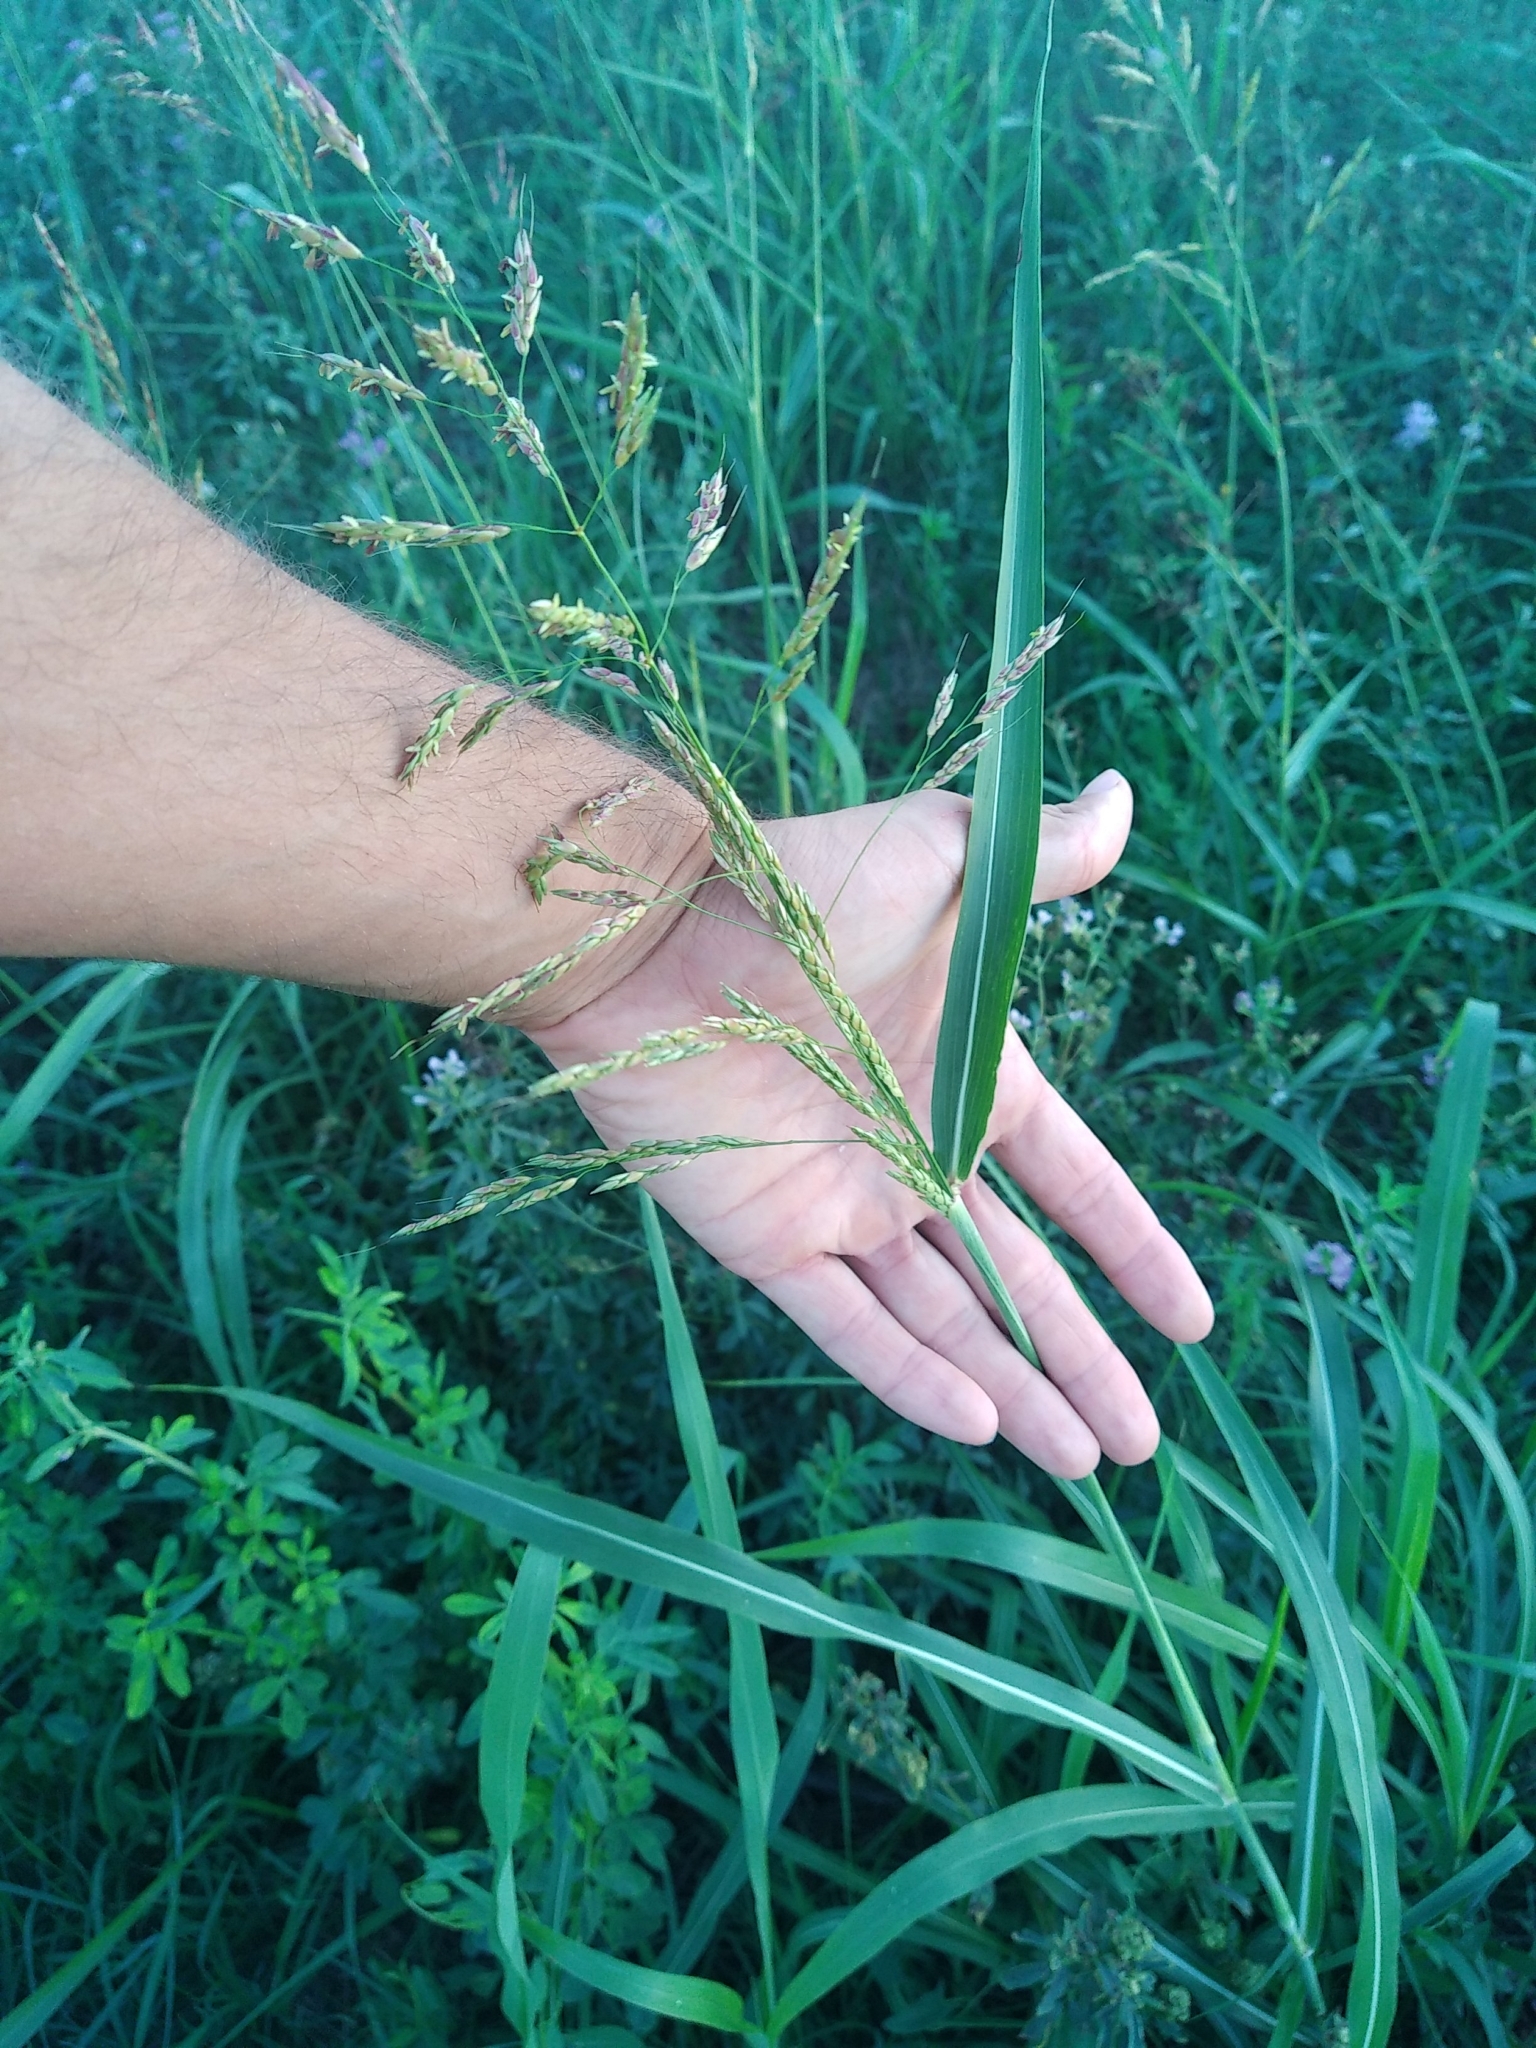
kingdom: Plantae
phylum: Tracheophyta
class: Liliopsida
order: Poales
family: Poaceae
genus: Sorghum
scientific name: Sorghum halepense
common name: Johnson-grass
